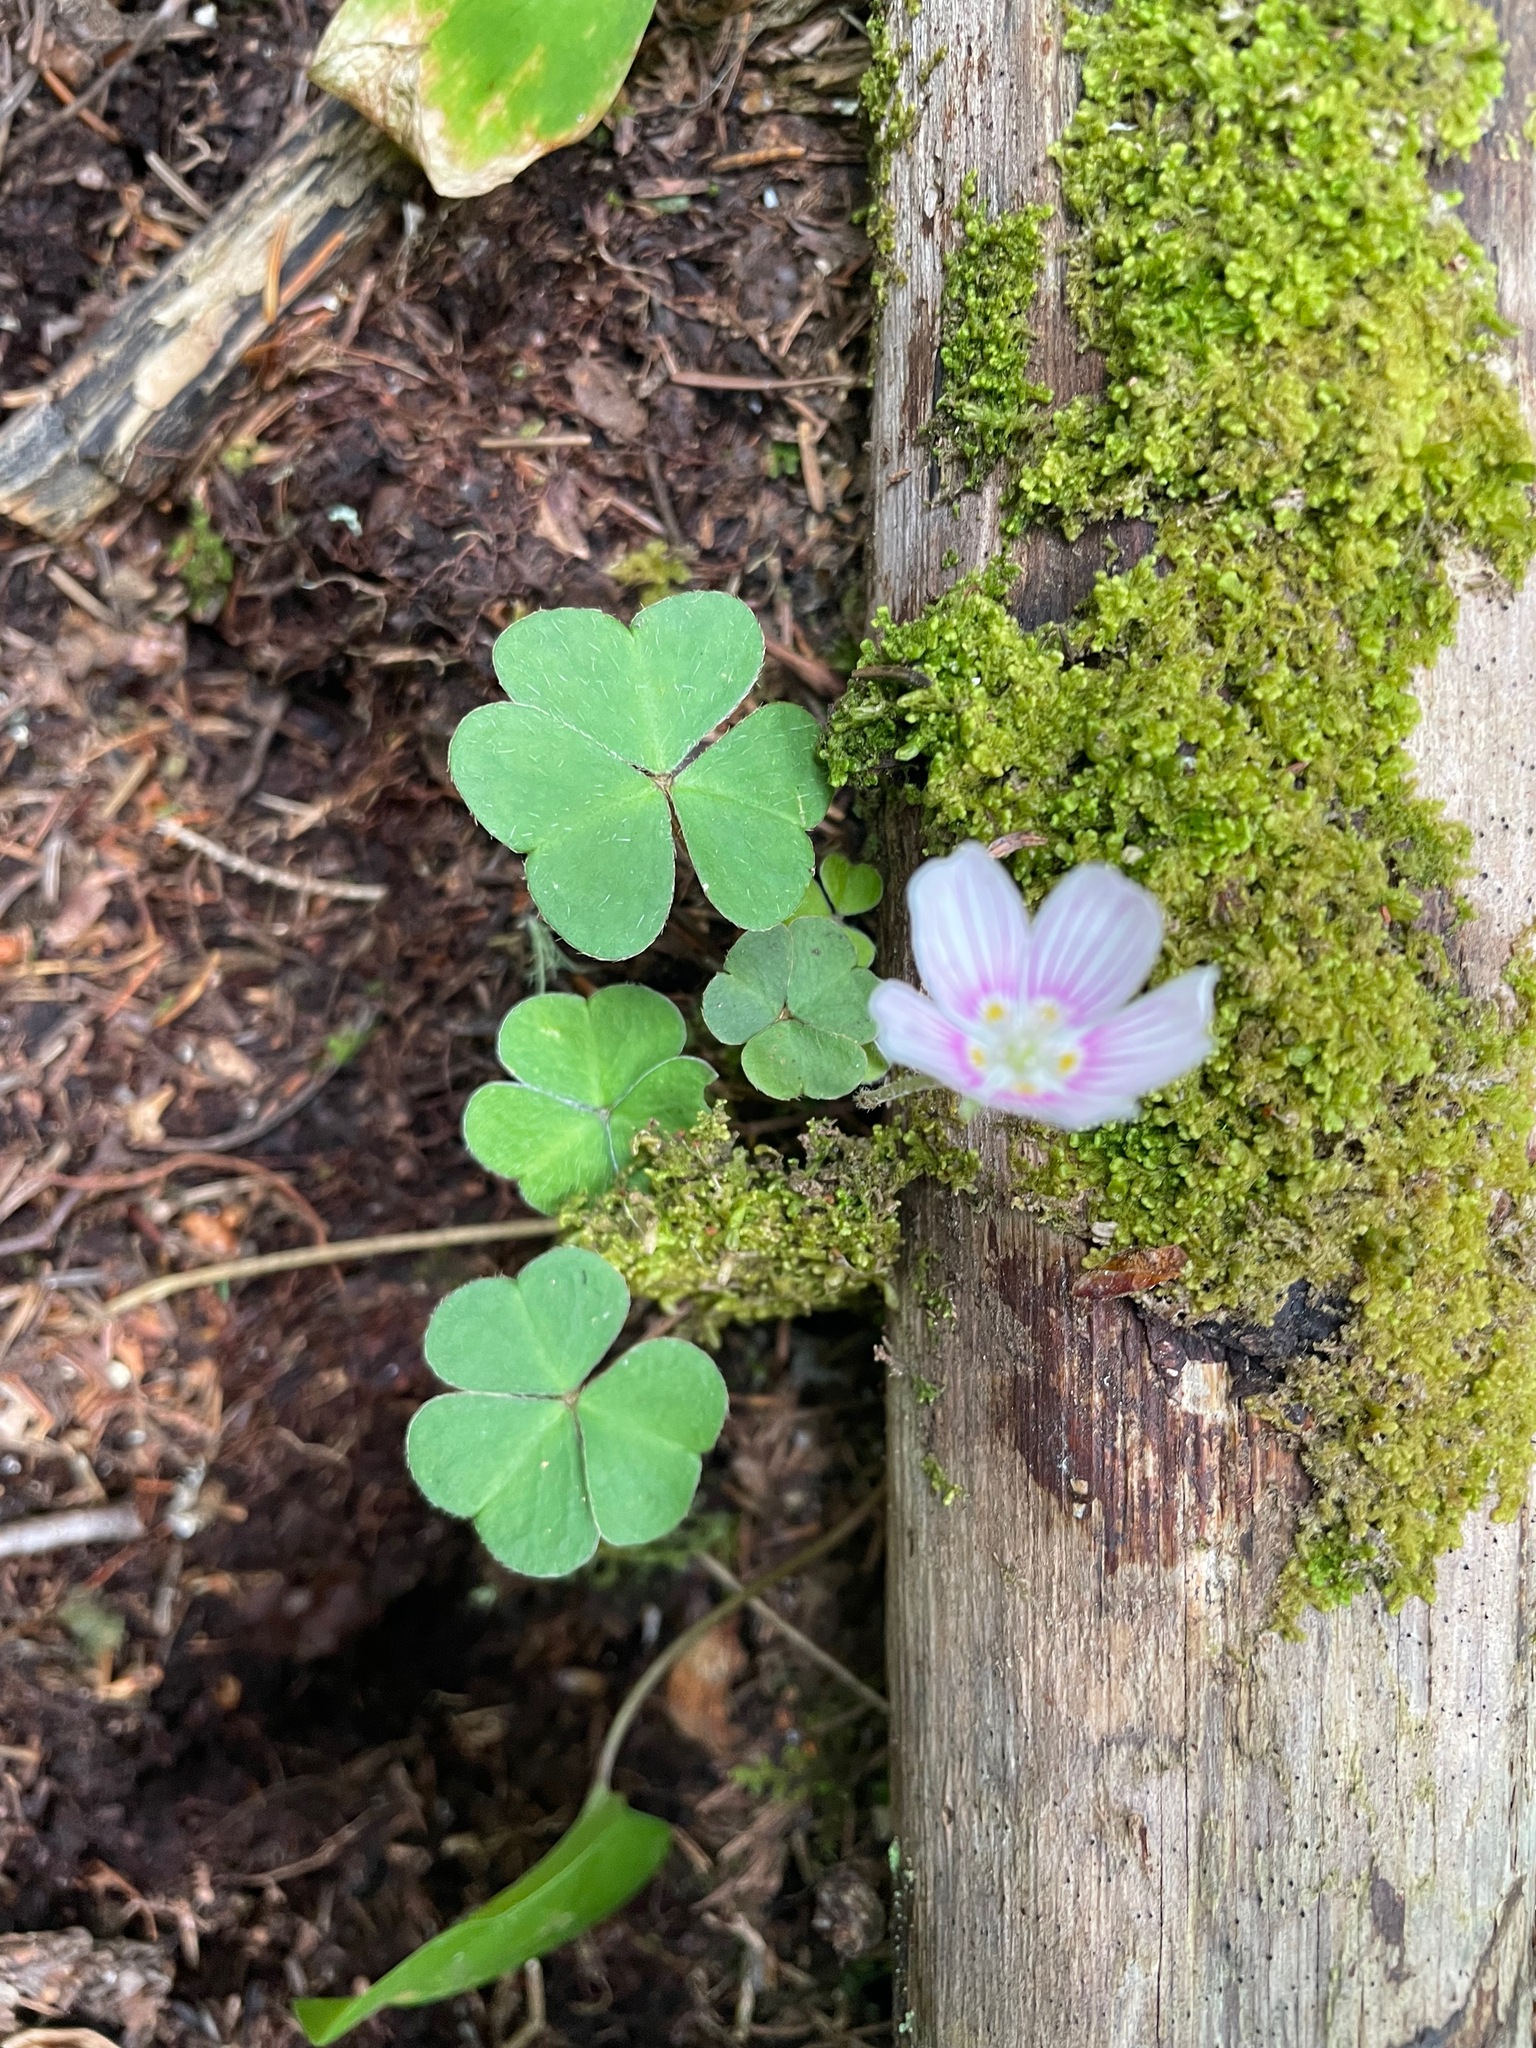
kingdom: Plantae
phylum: Tracheophyta
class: Magnoliopsida
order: Oxalidales
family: Oxalidaceae
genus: Oxalis
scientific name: Oxalis montana
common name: American wood-sorrel
